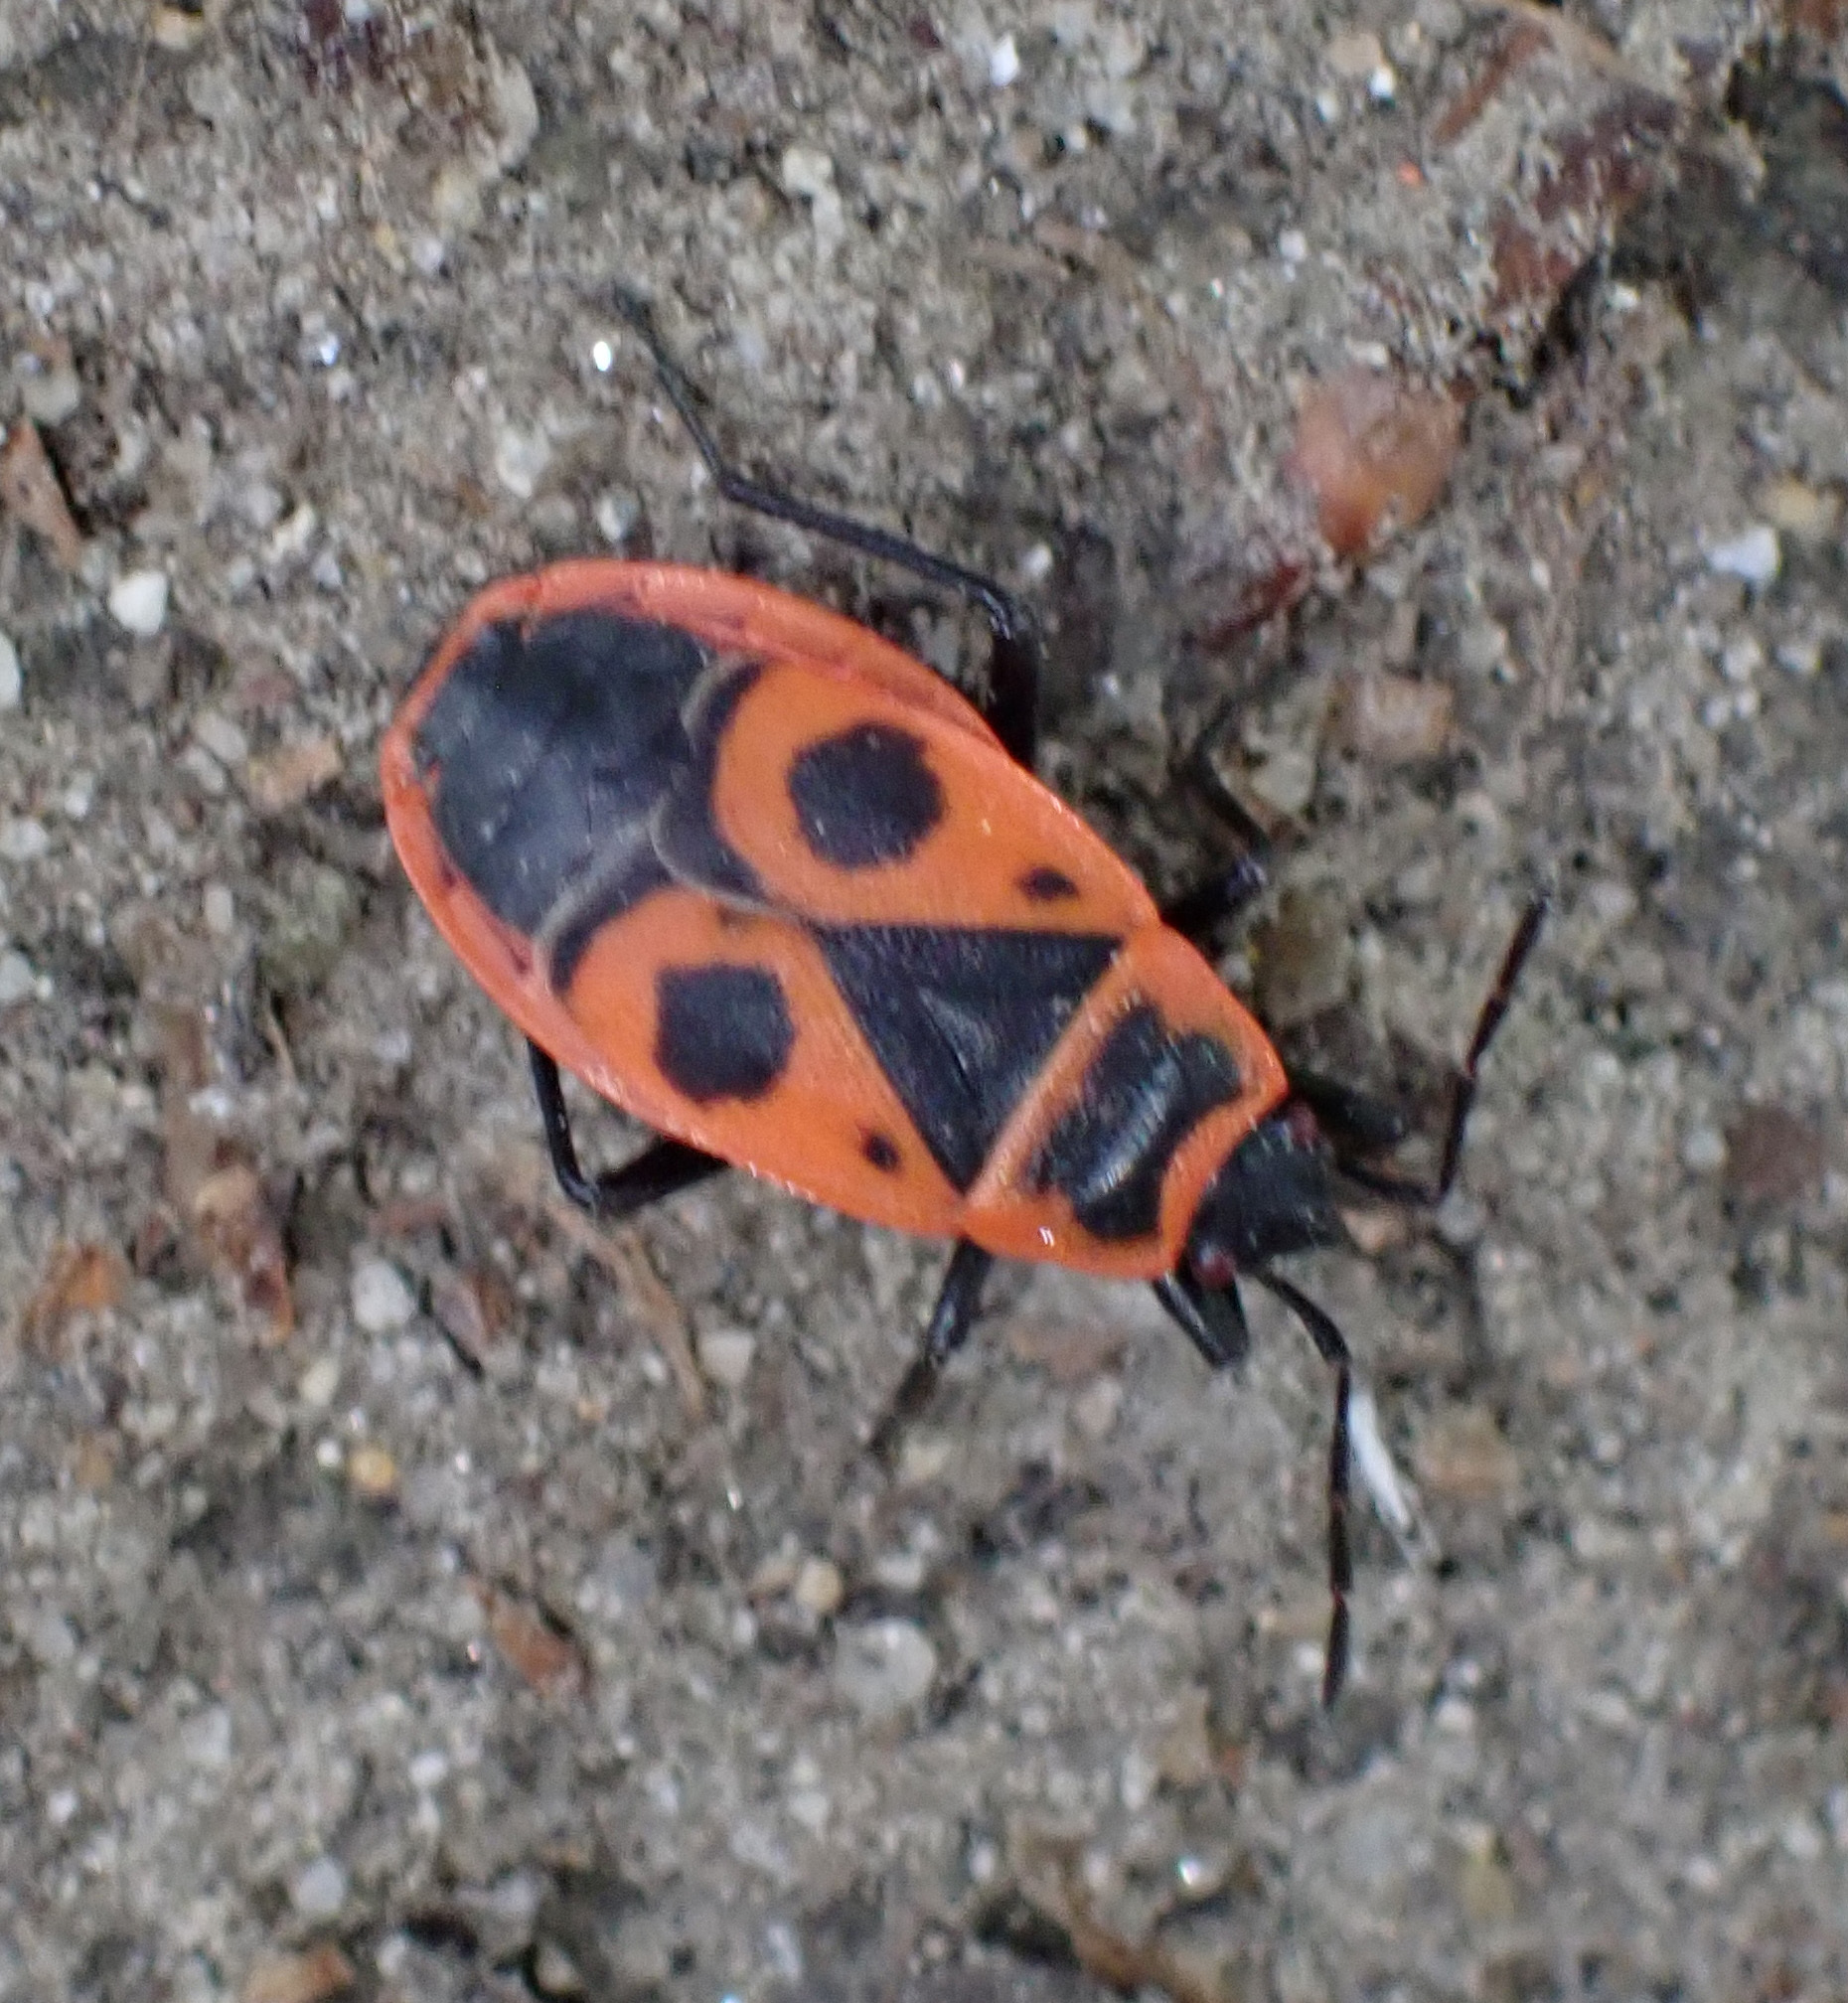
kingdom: Animalia
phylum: Arthropoda
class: Insecta
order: Hemiptera
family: Pyrrhocoridae
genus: Pyrrhocoris
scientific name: Pyrrhocoris apterus
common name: Firebug
